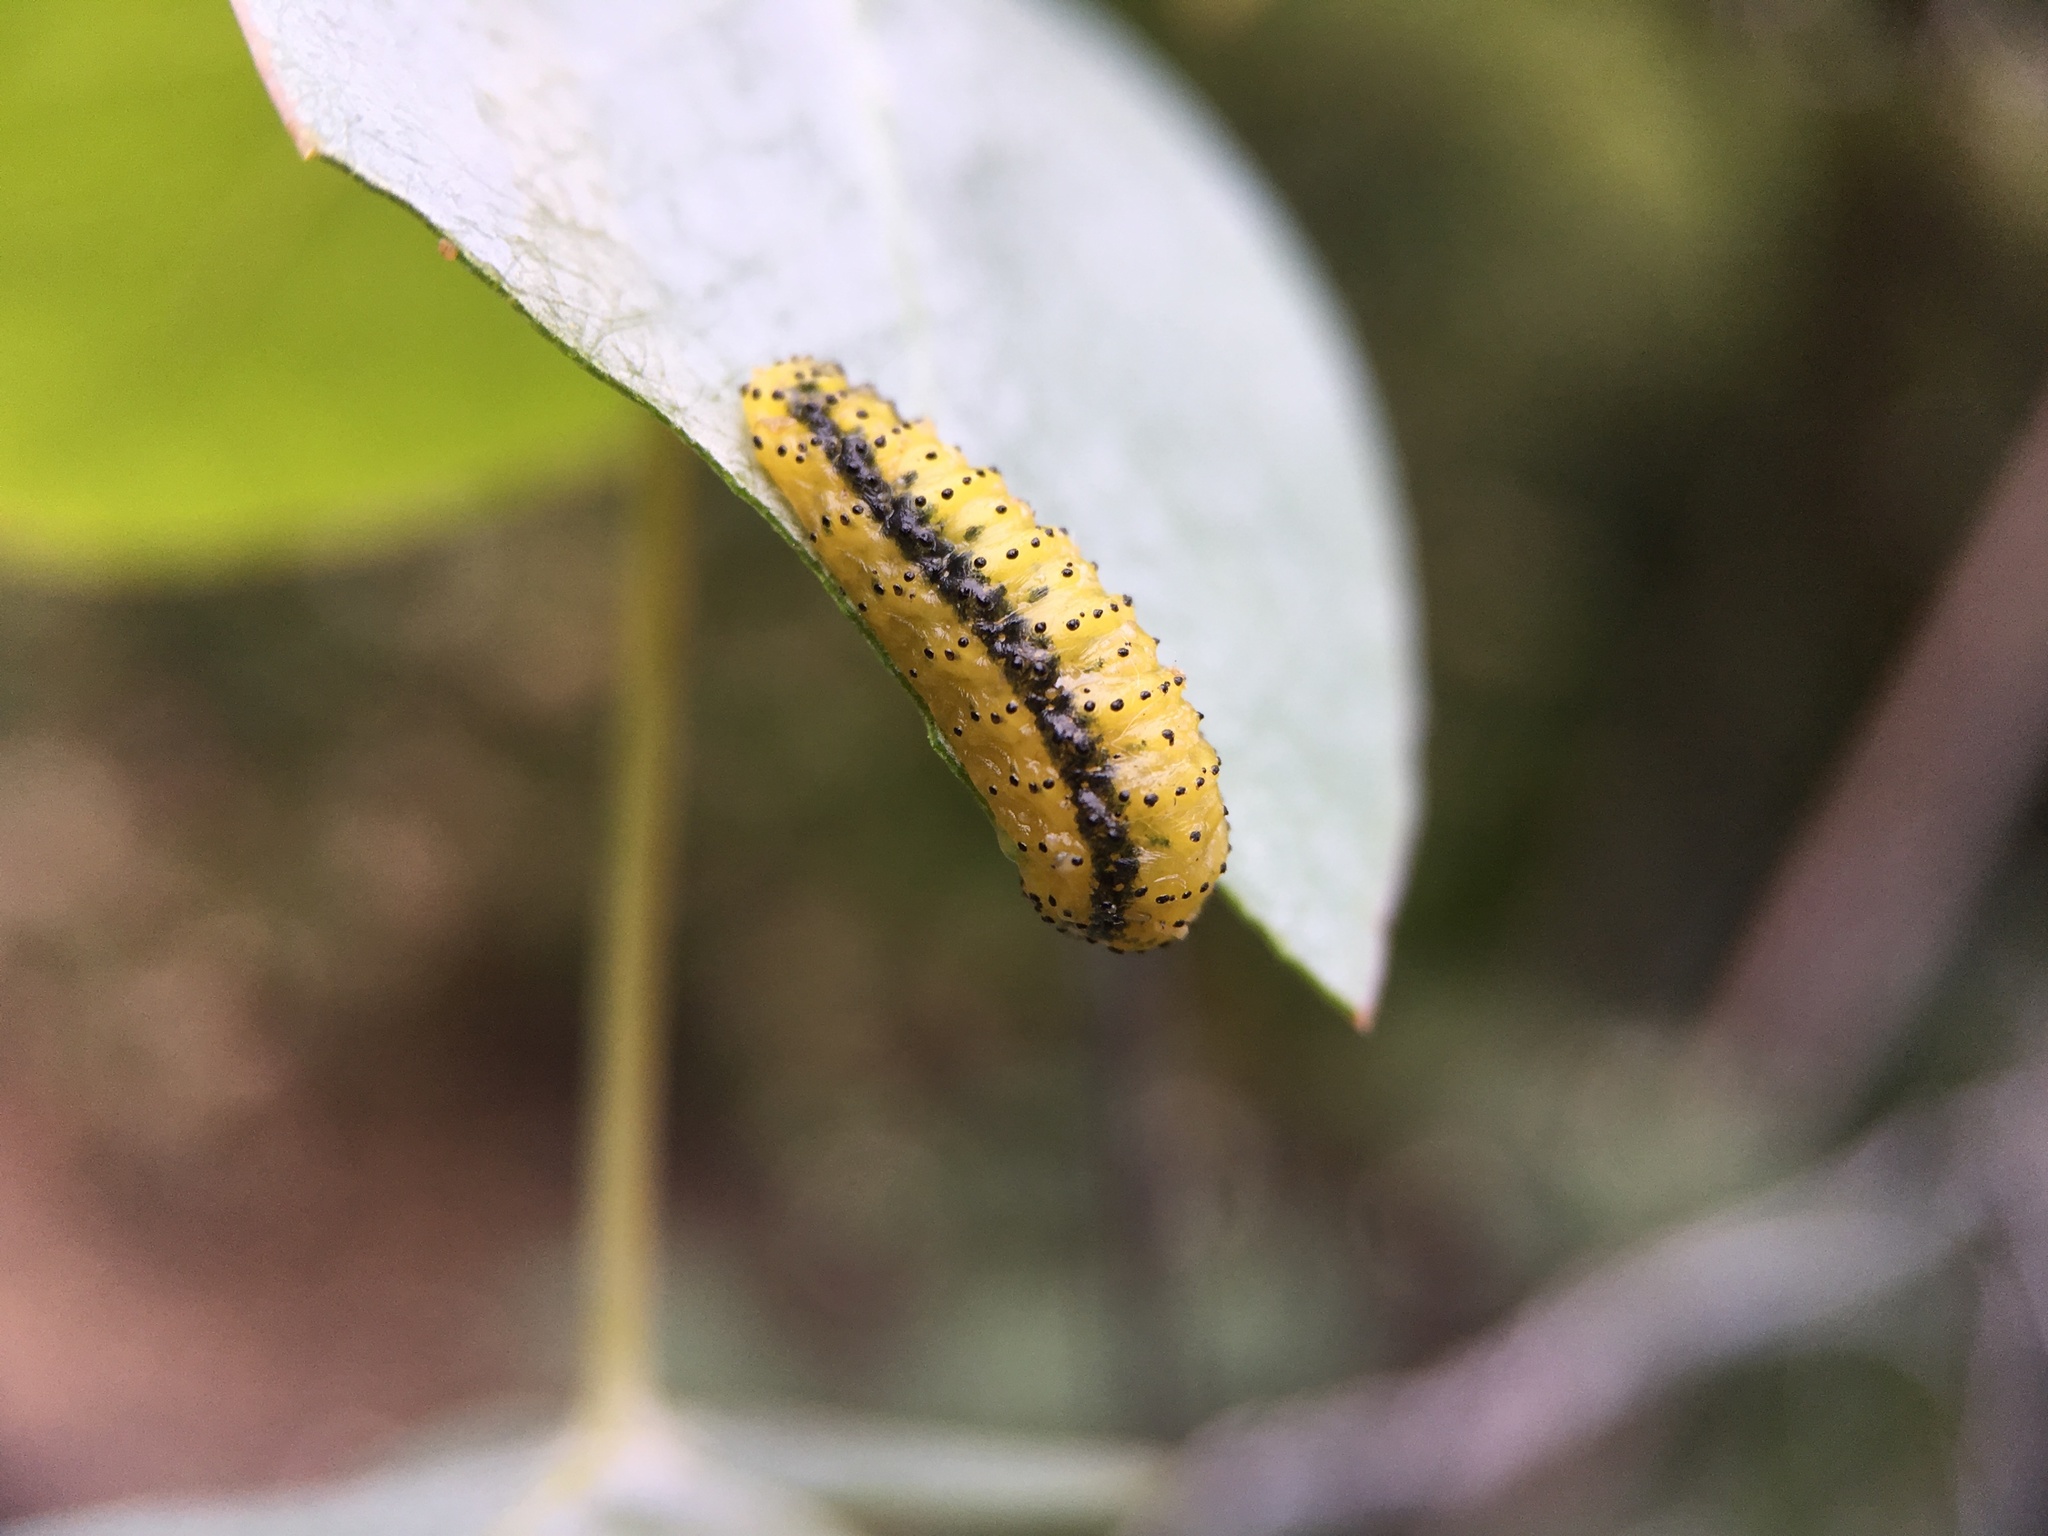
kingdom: Animalia
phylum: Arthropoda
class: Insecta
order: Coleoptera
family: Curculionidae
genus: Gonipterus
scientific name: Gonipterus platensis
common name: Eucalyptus snout beetle
